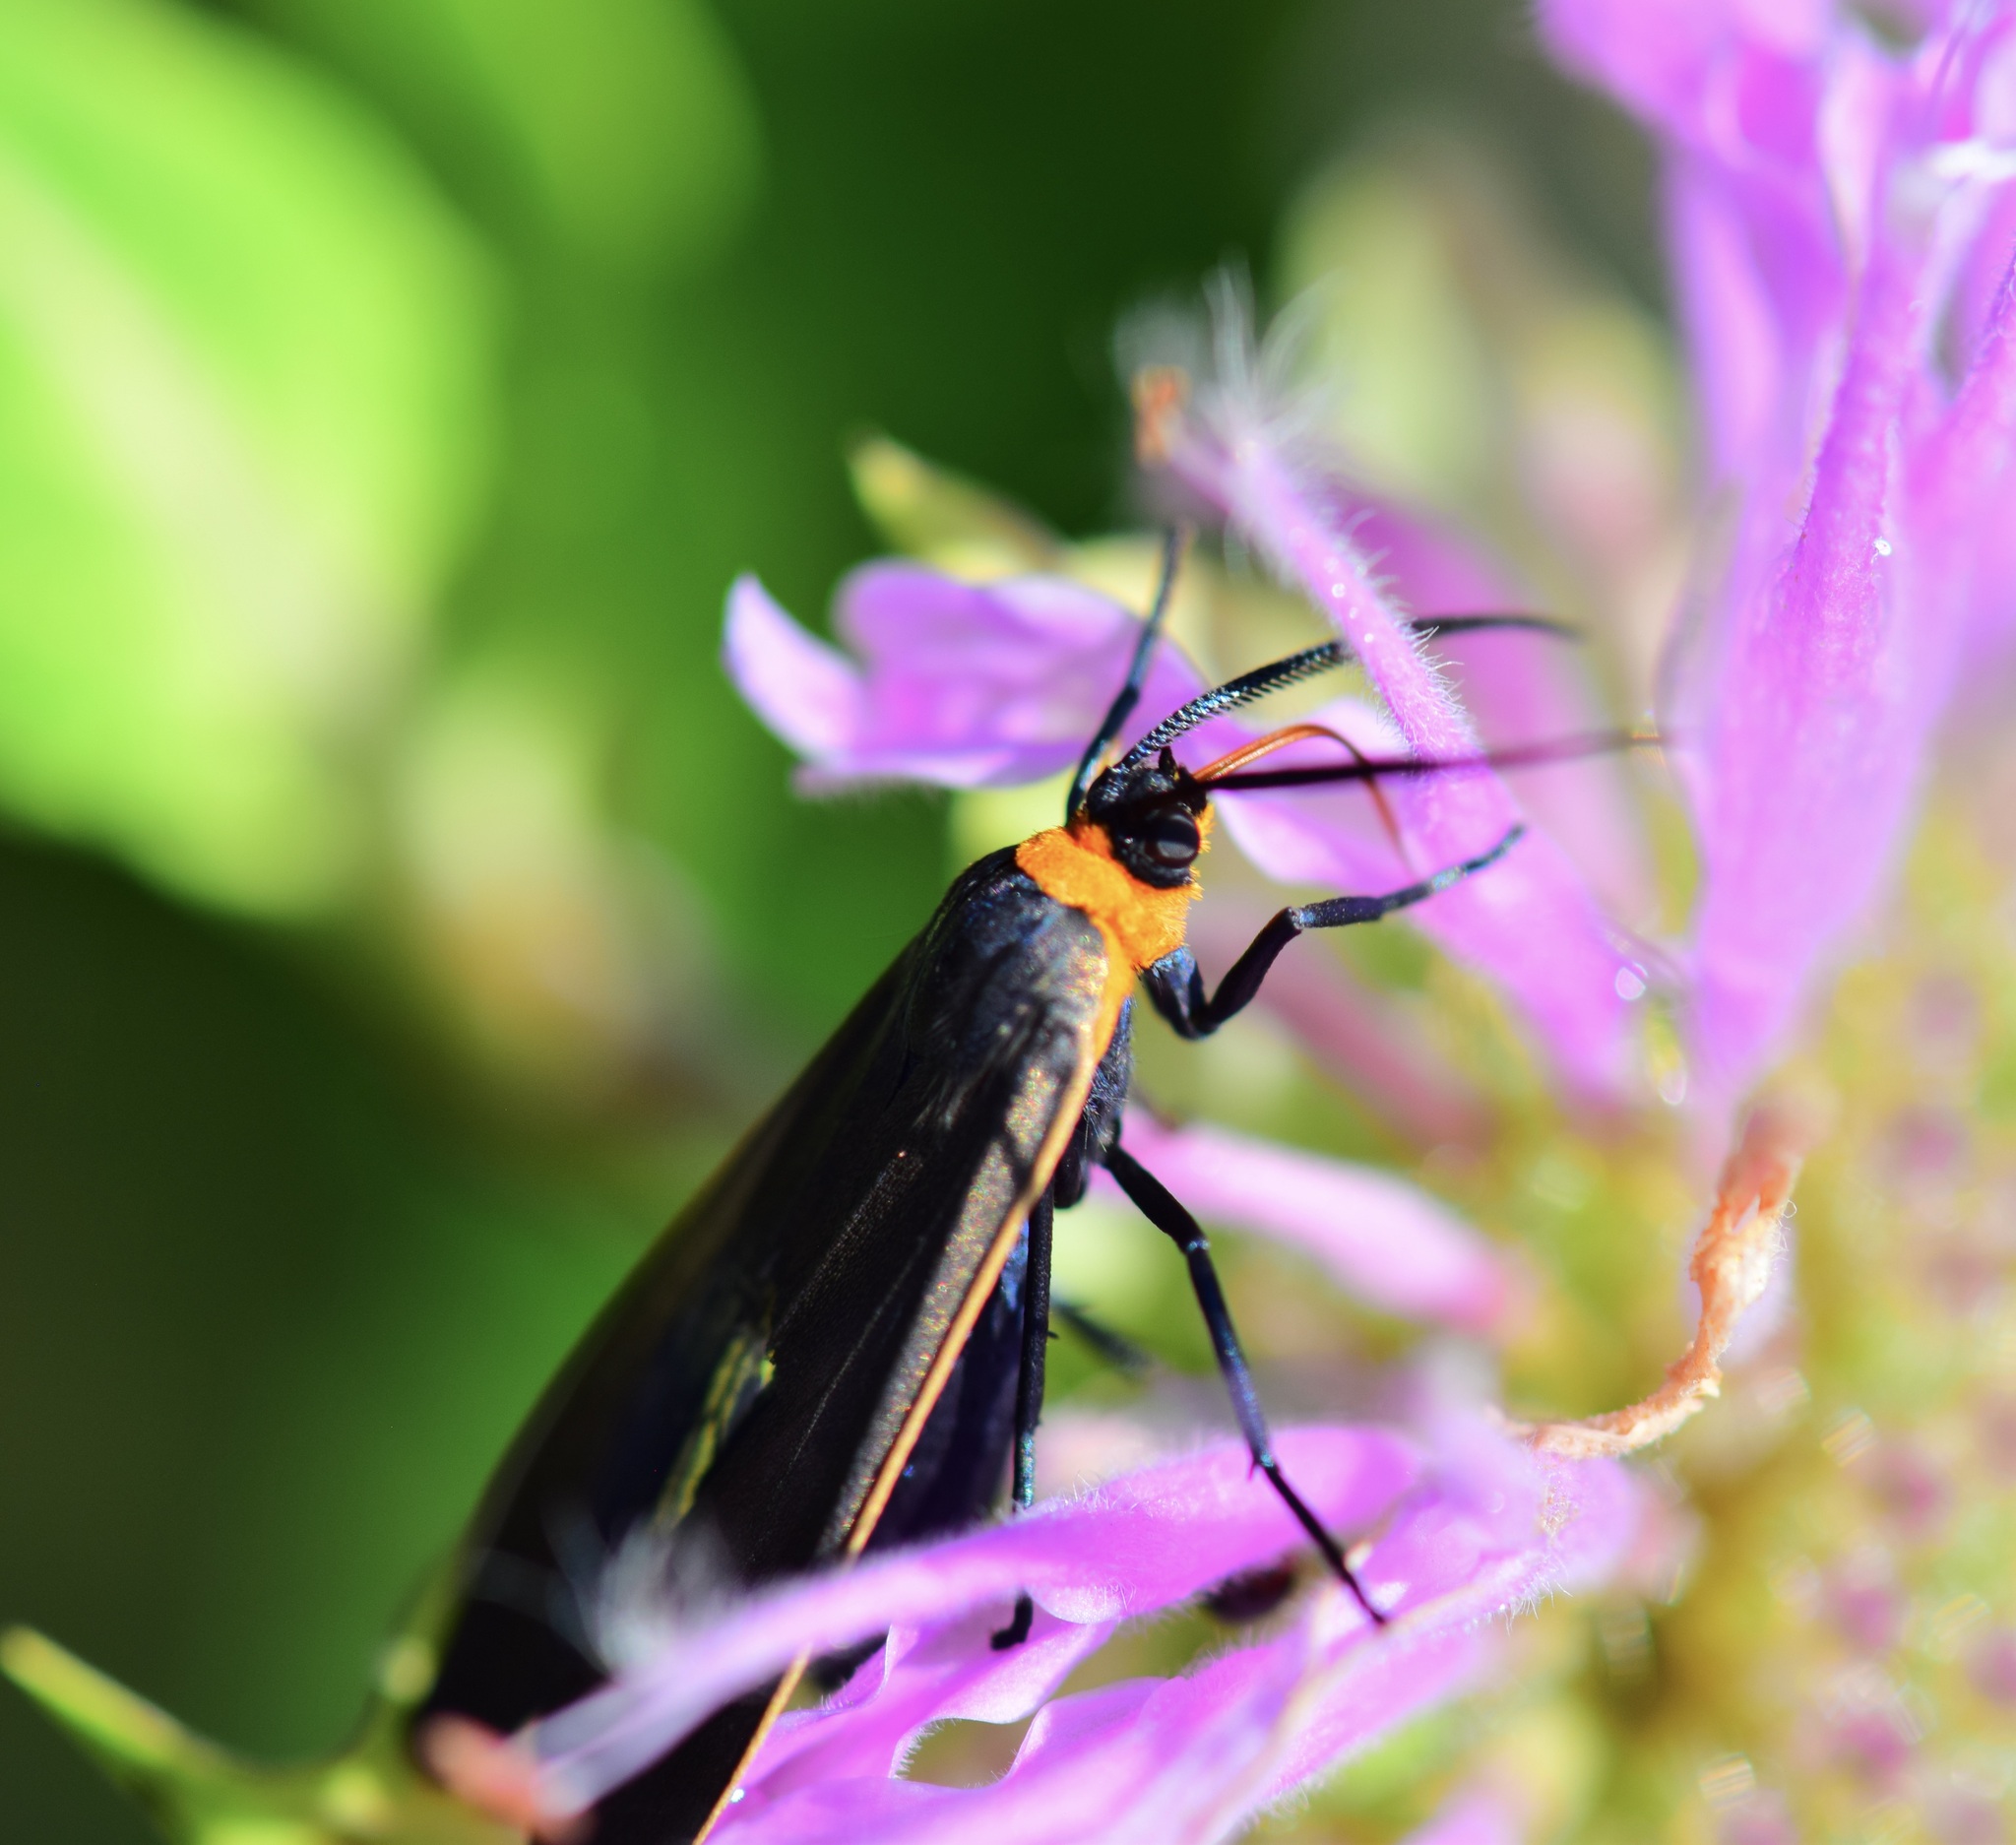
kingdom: Animalia
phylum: Arthropoda
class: Insecta
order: Lepidoptera
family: Erebidae
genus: Cisseps
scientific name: Cisseps fulvicollis
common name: Yellow-collared scape moth
